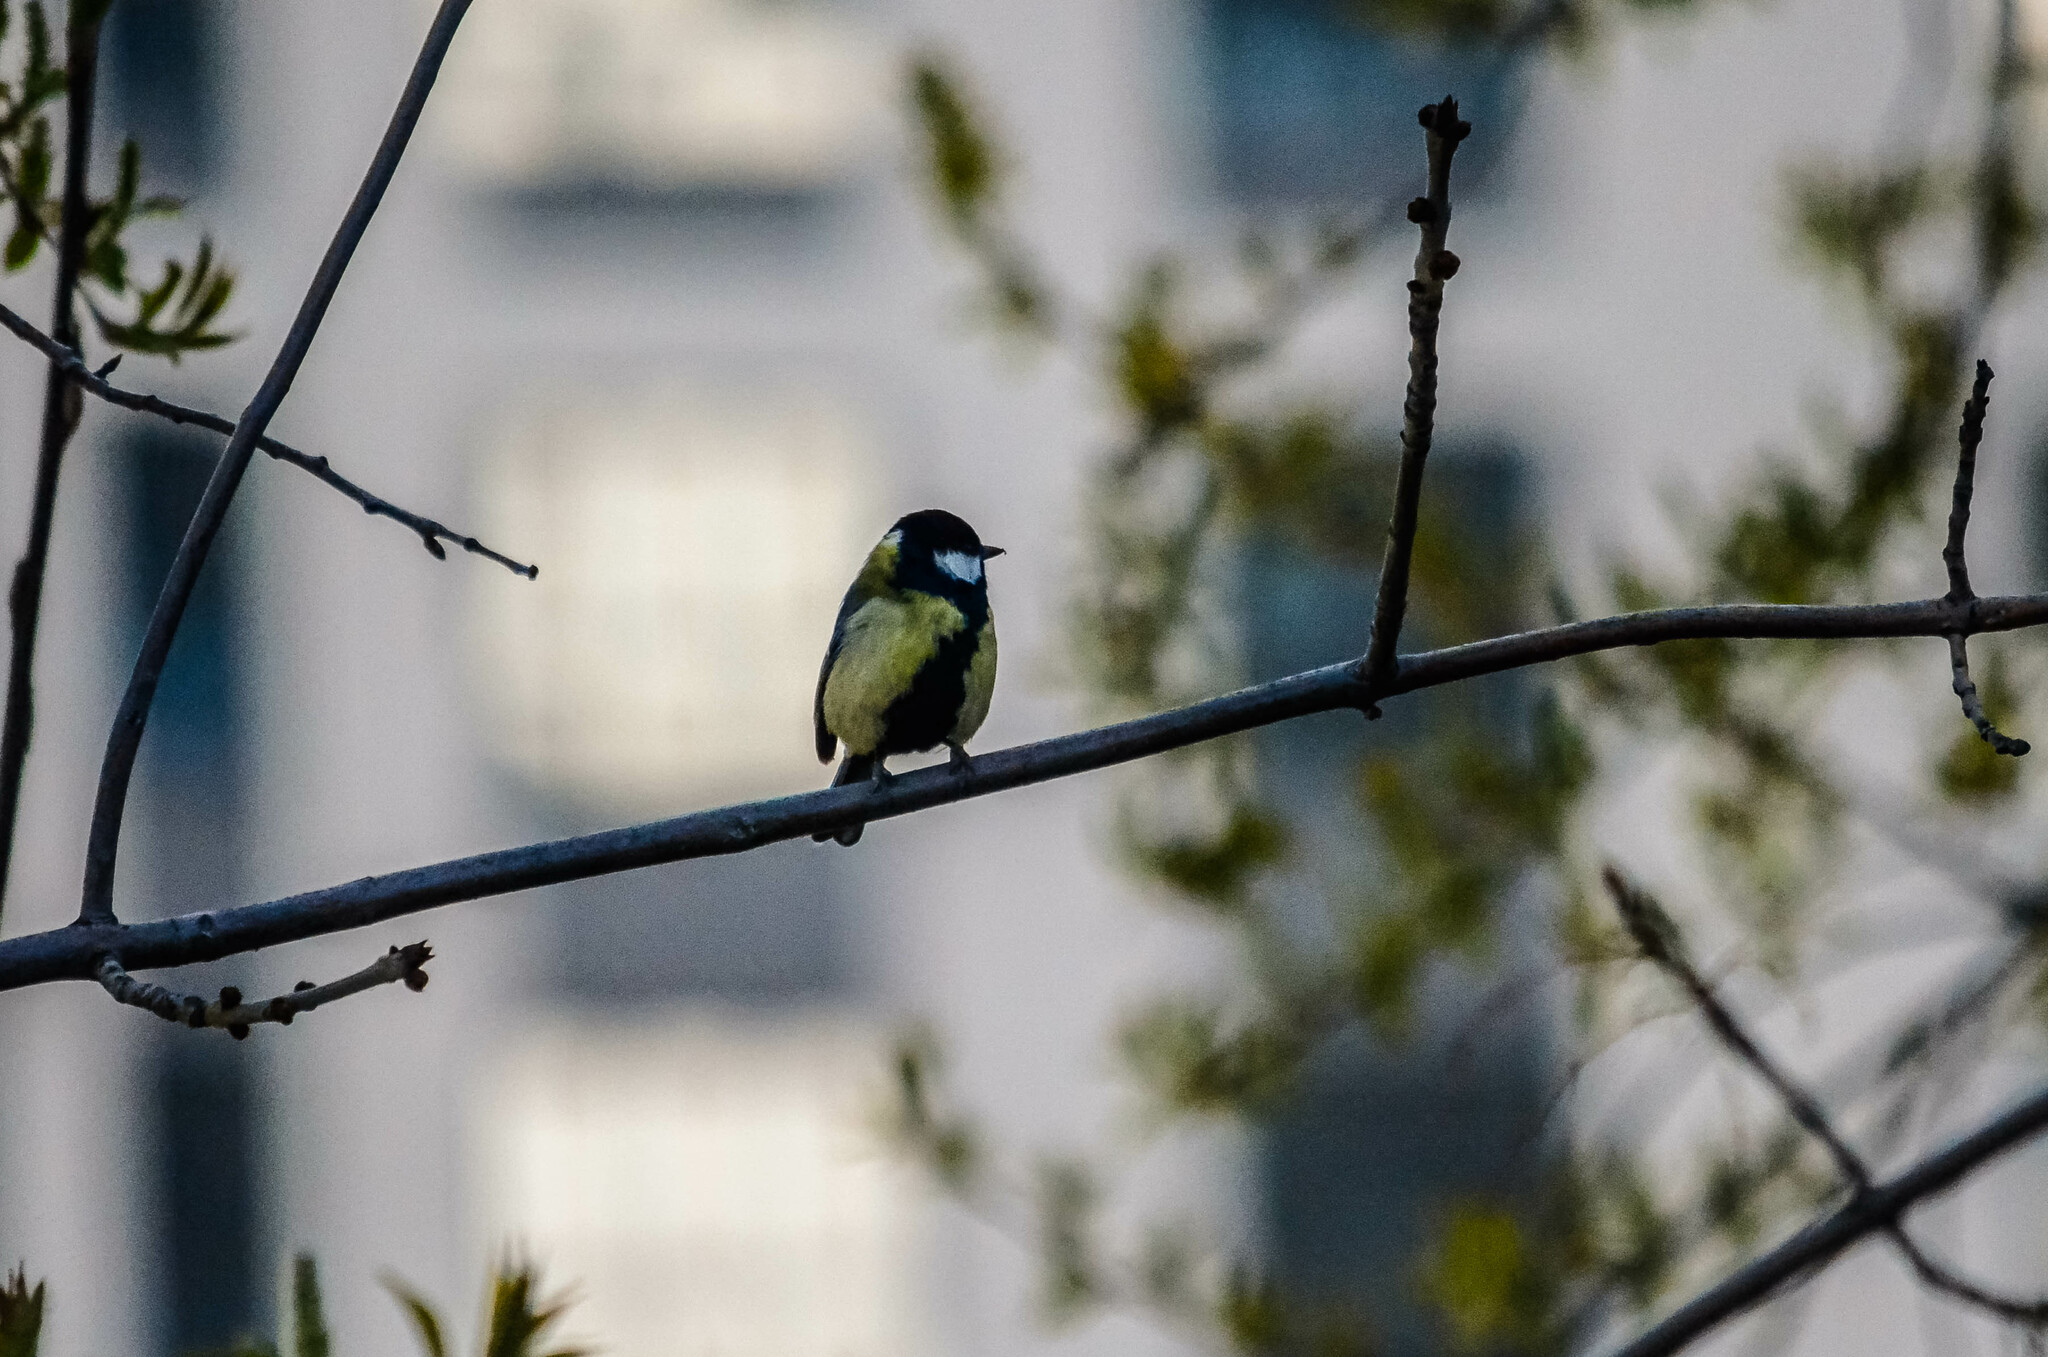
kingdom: Animalia
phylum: Chordata
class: Aves
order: Passeriformes
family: Paridae
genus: Parus
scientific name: Parus major
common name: Great tit
